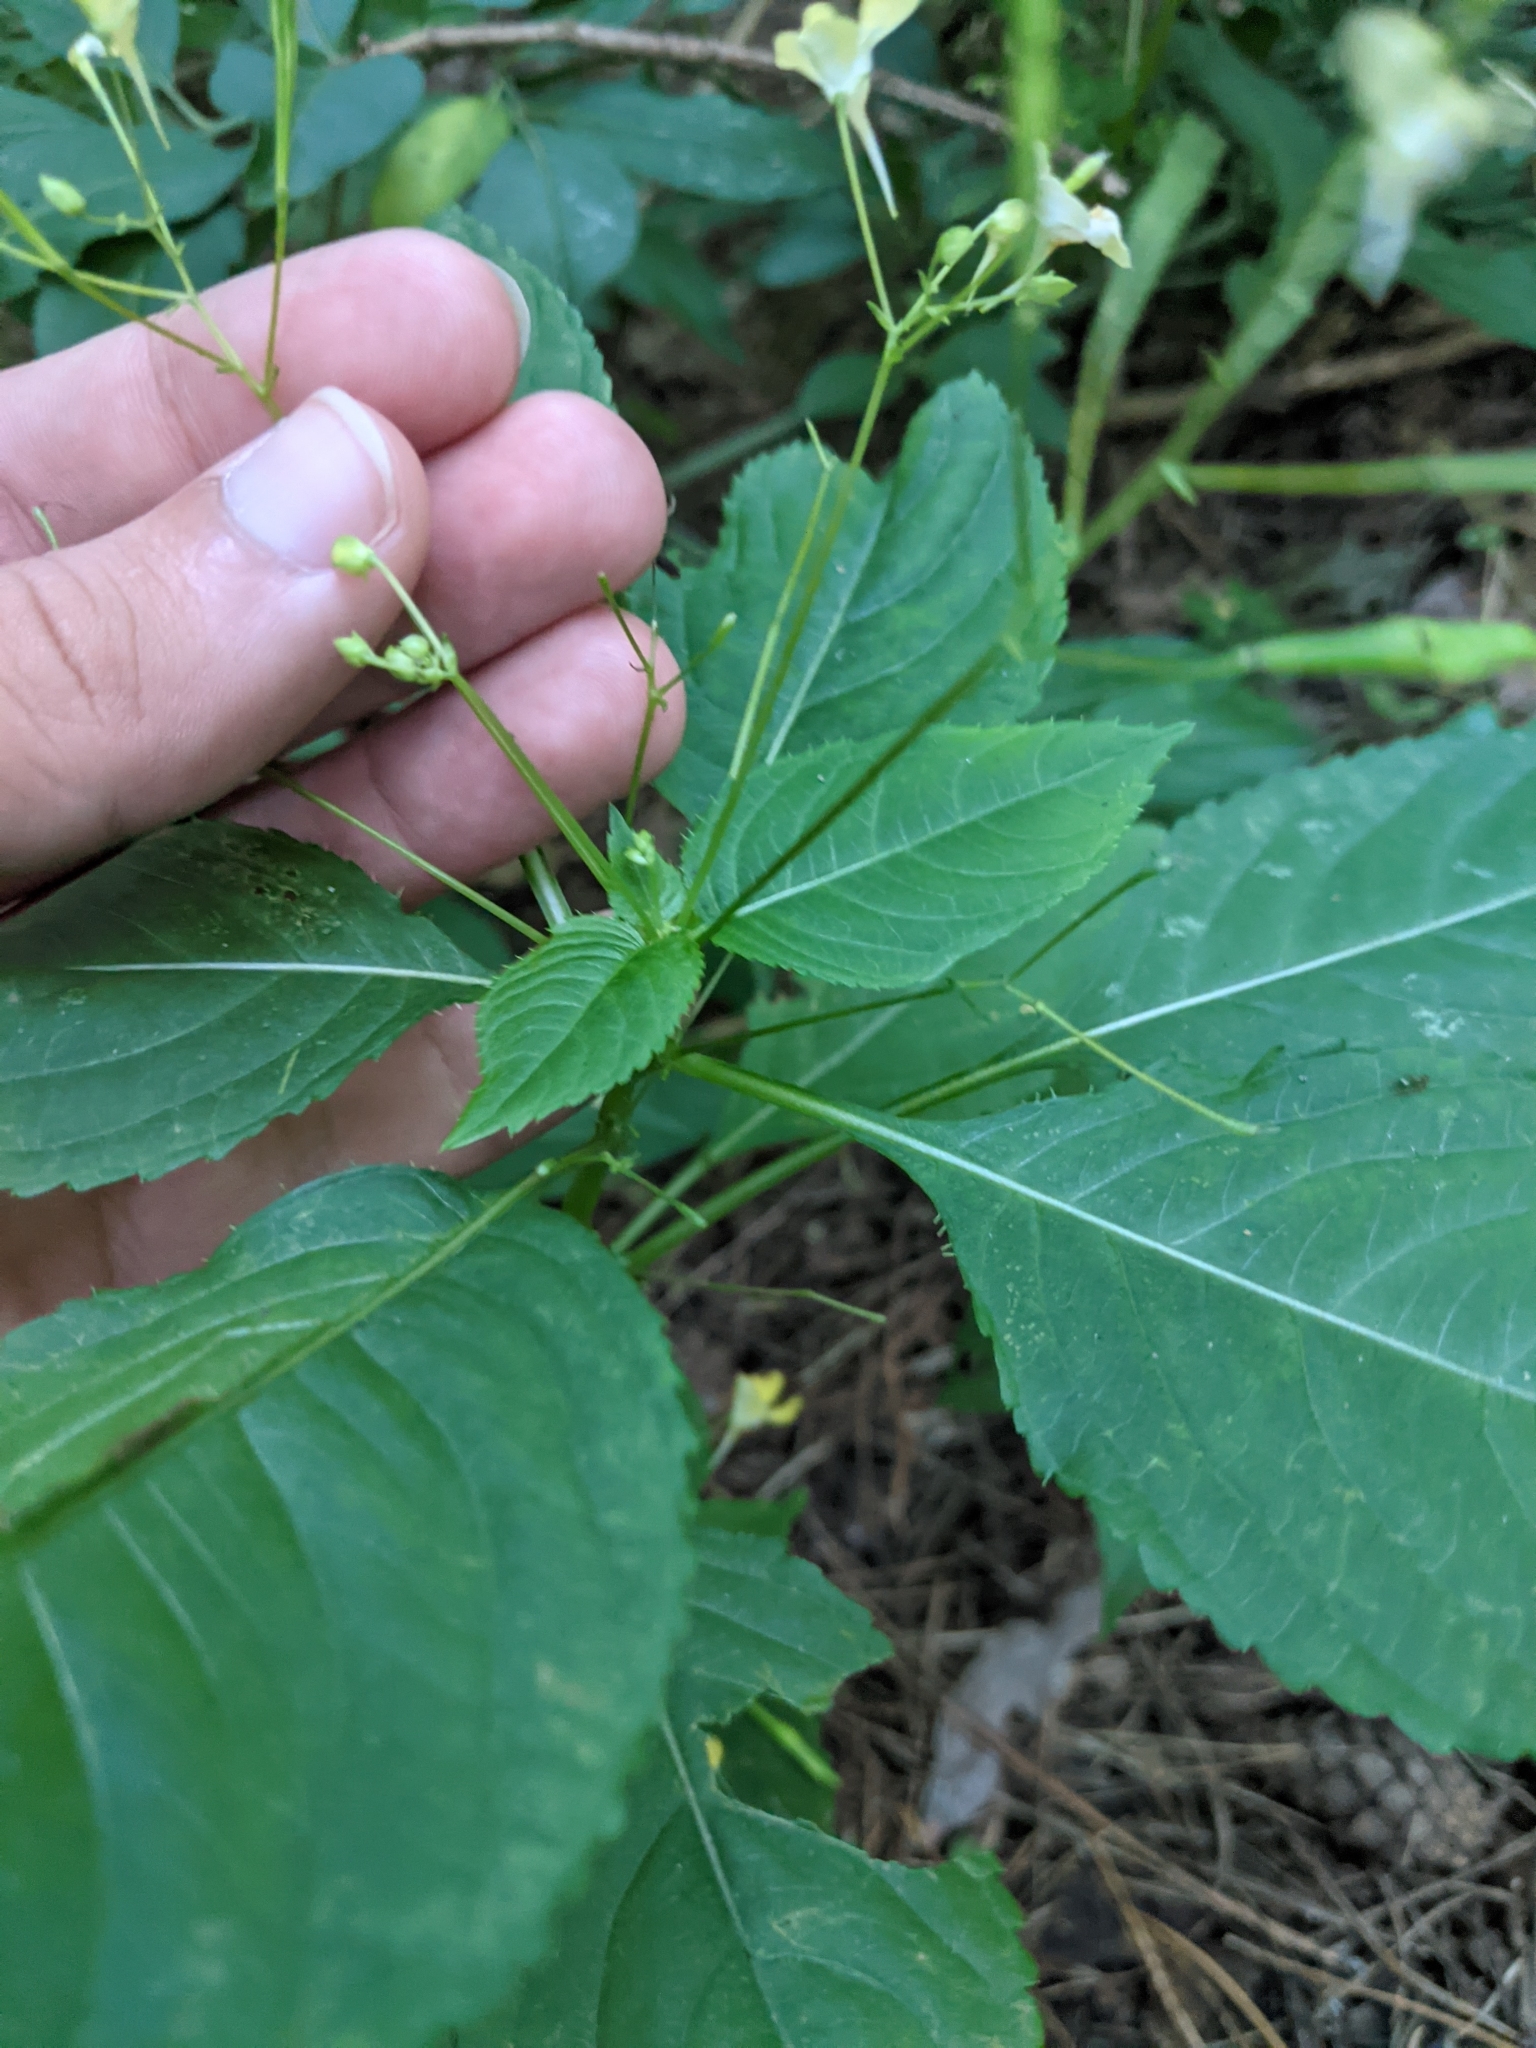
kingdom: Plantae
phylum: Tracheophyta
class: Magnoliopsida
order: Ericales
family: Balsaminaceae
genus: Impatiens
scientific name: Impatiens parviflora
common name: Small balsam
